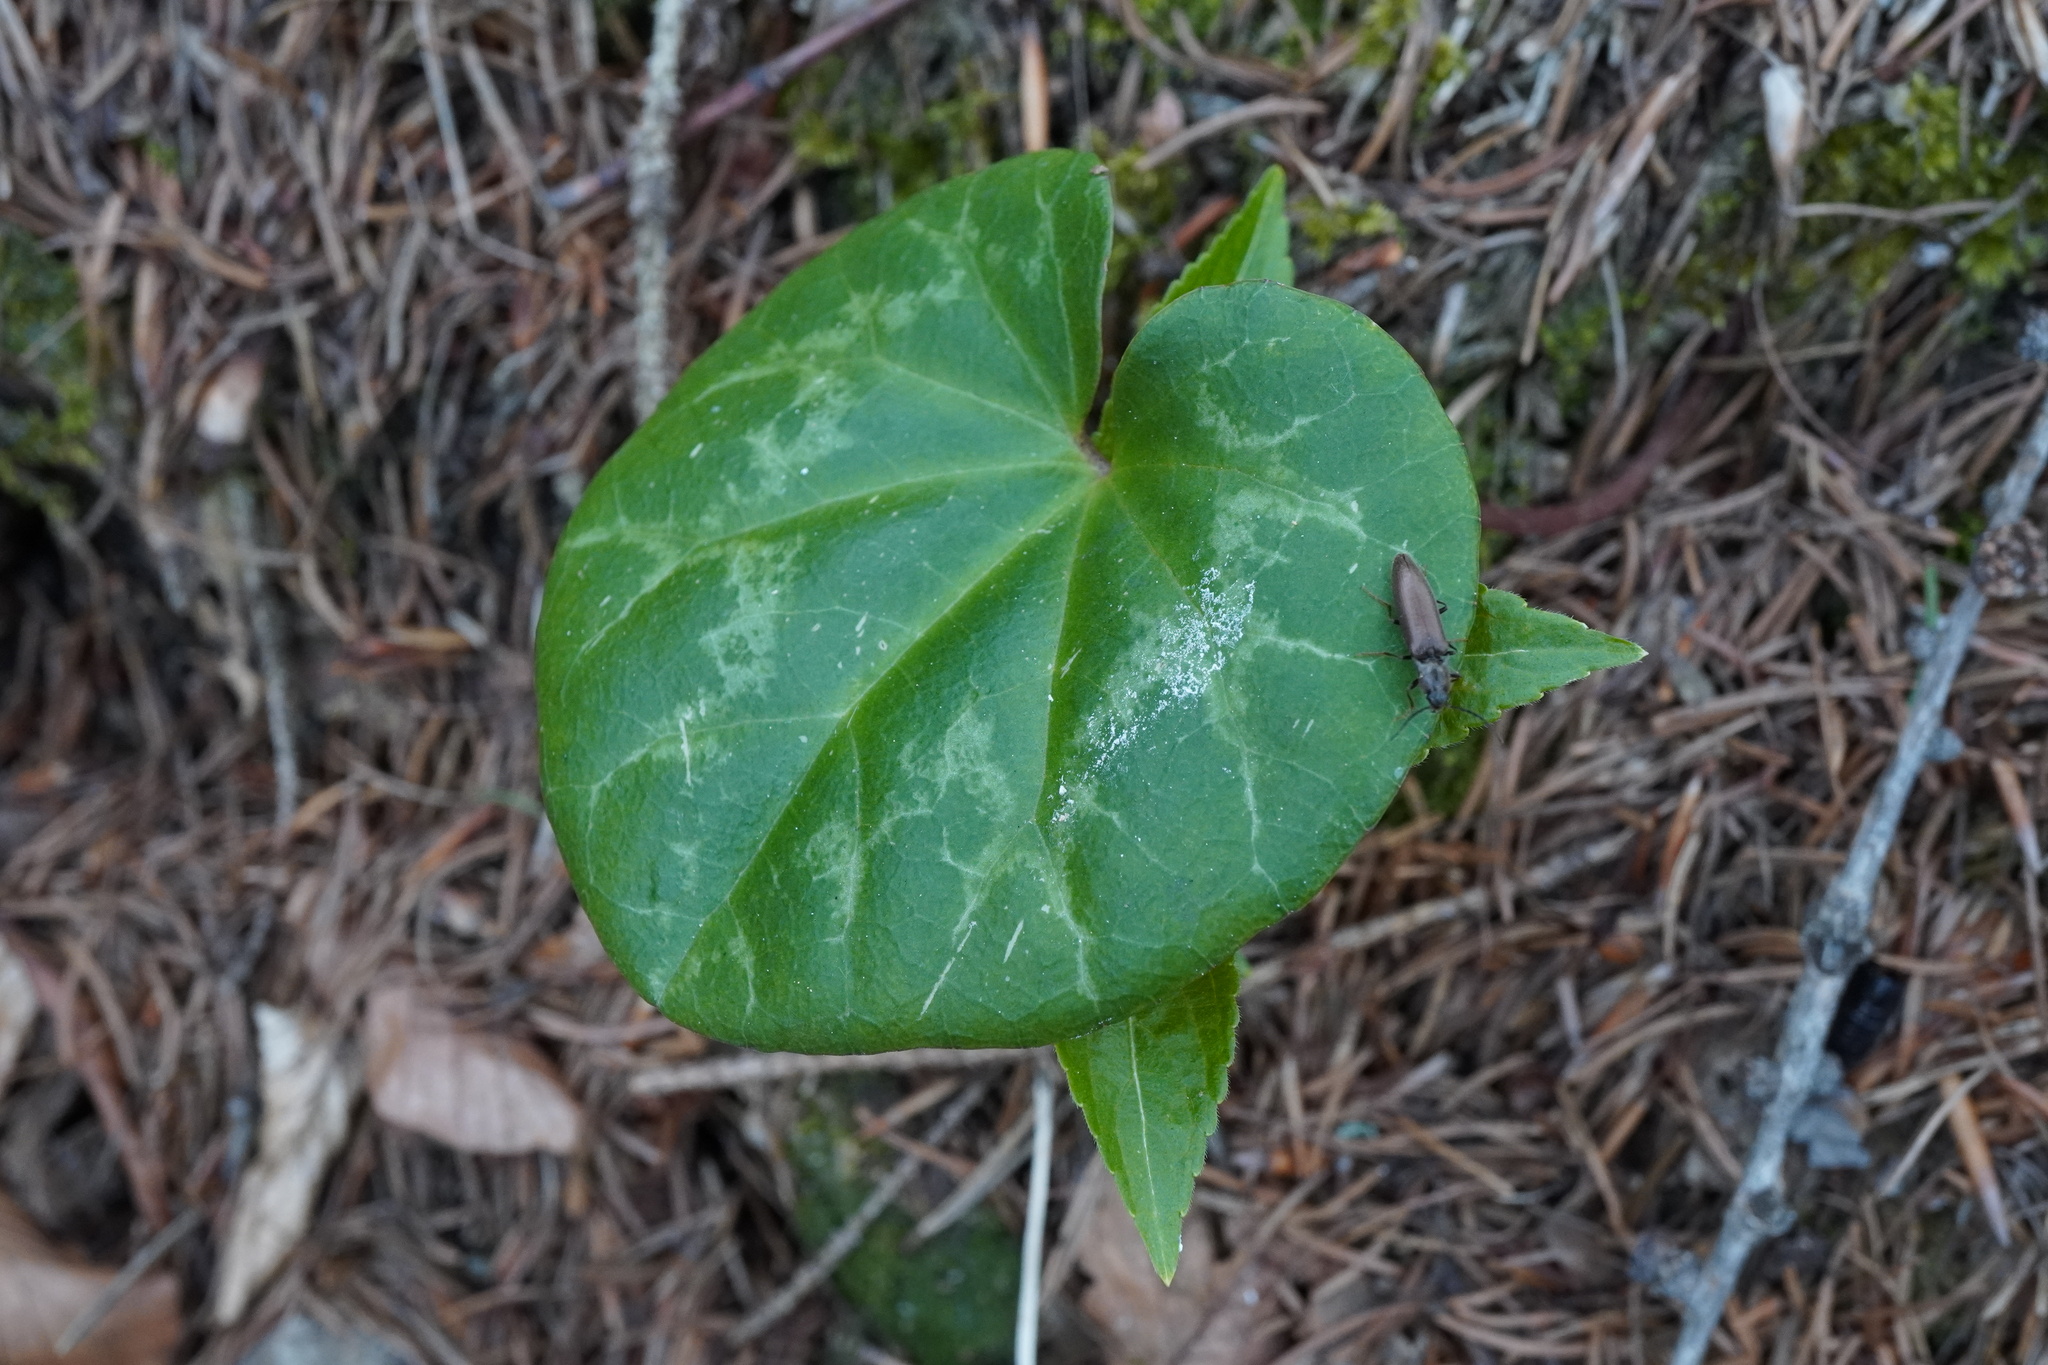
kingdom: Plantae
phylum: Tracheophyta
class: Magnoliopsida
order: Ericales
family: Primulaceae
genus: Cyclamen
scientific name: Cyclamen purpurascens
